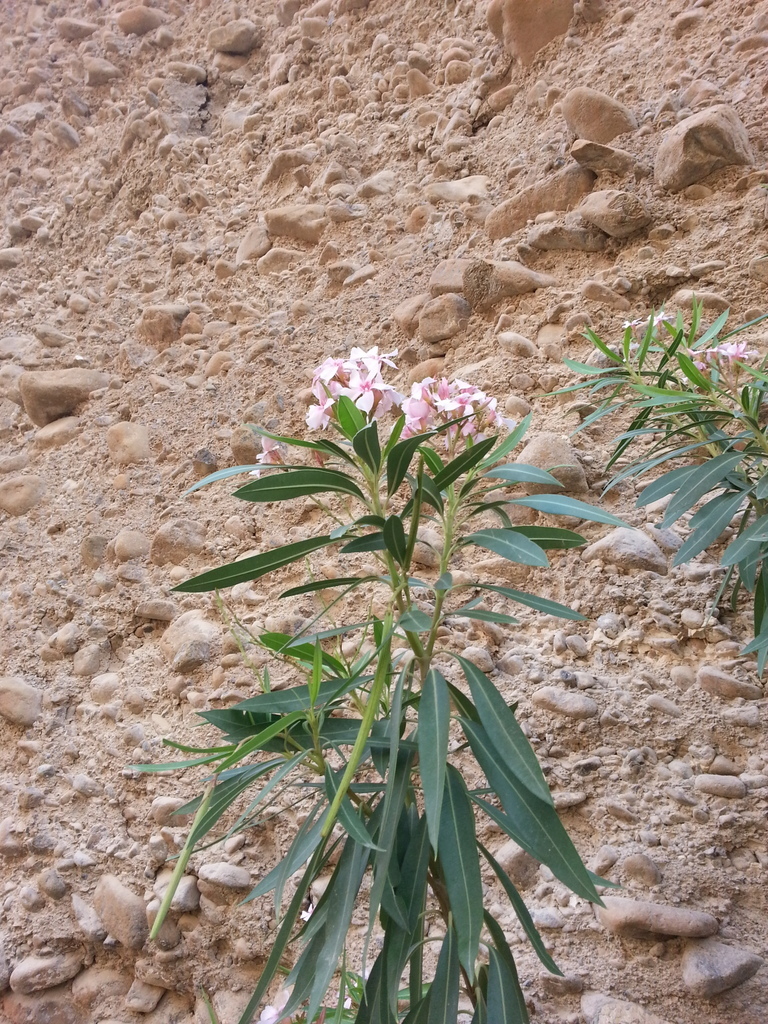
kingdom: Plantae
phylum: Tracheophyta
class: Magnoliopsida
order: Gentianales
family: Apocynaceae
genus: Nerium
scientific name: Nerium oleander
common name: Oleander
